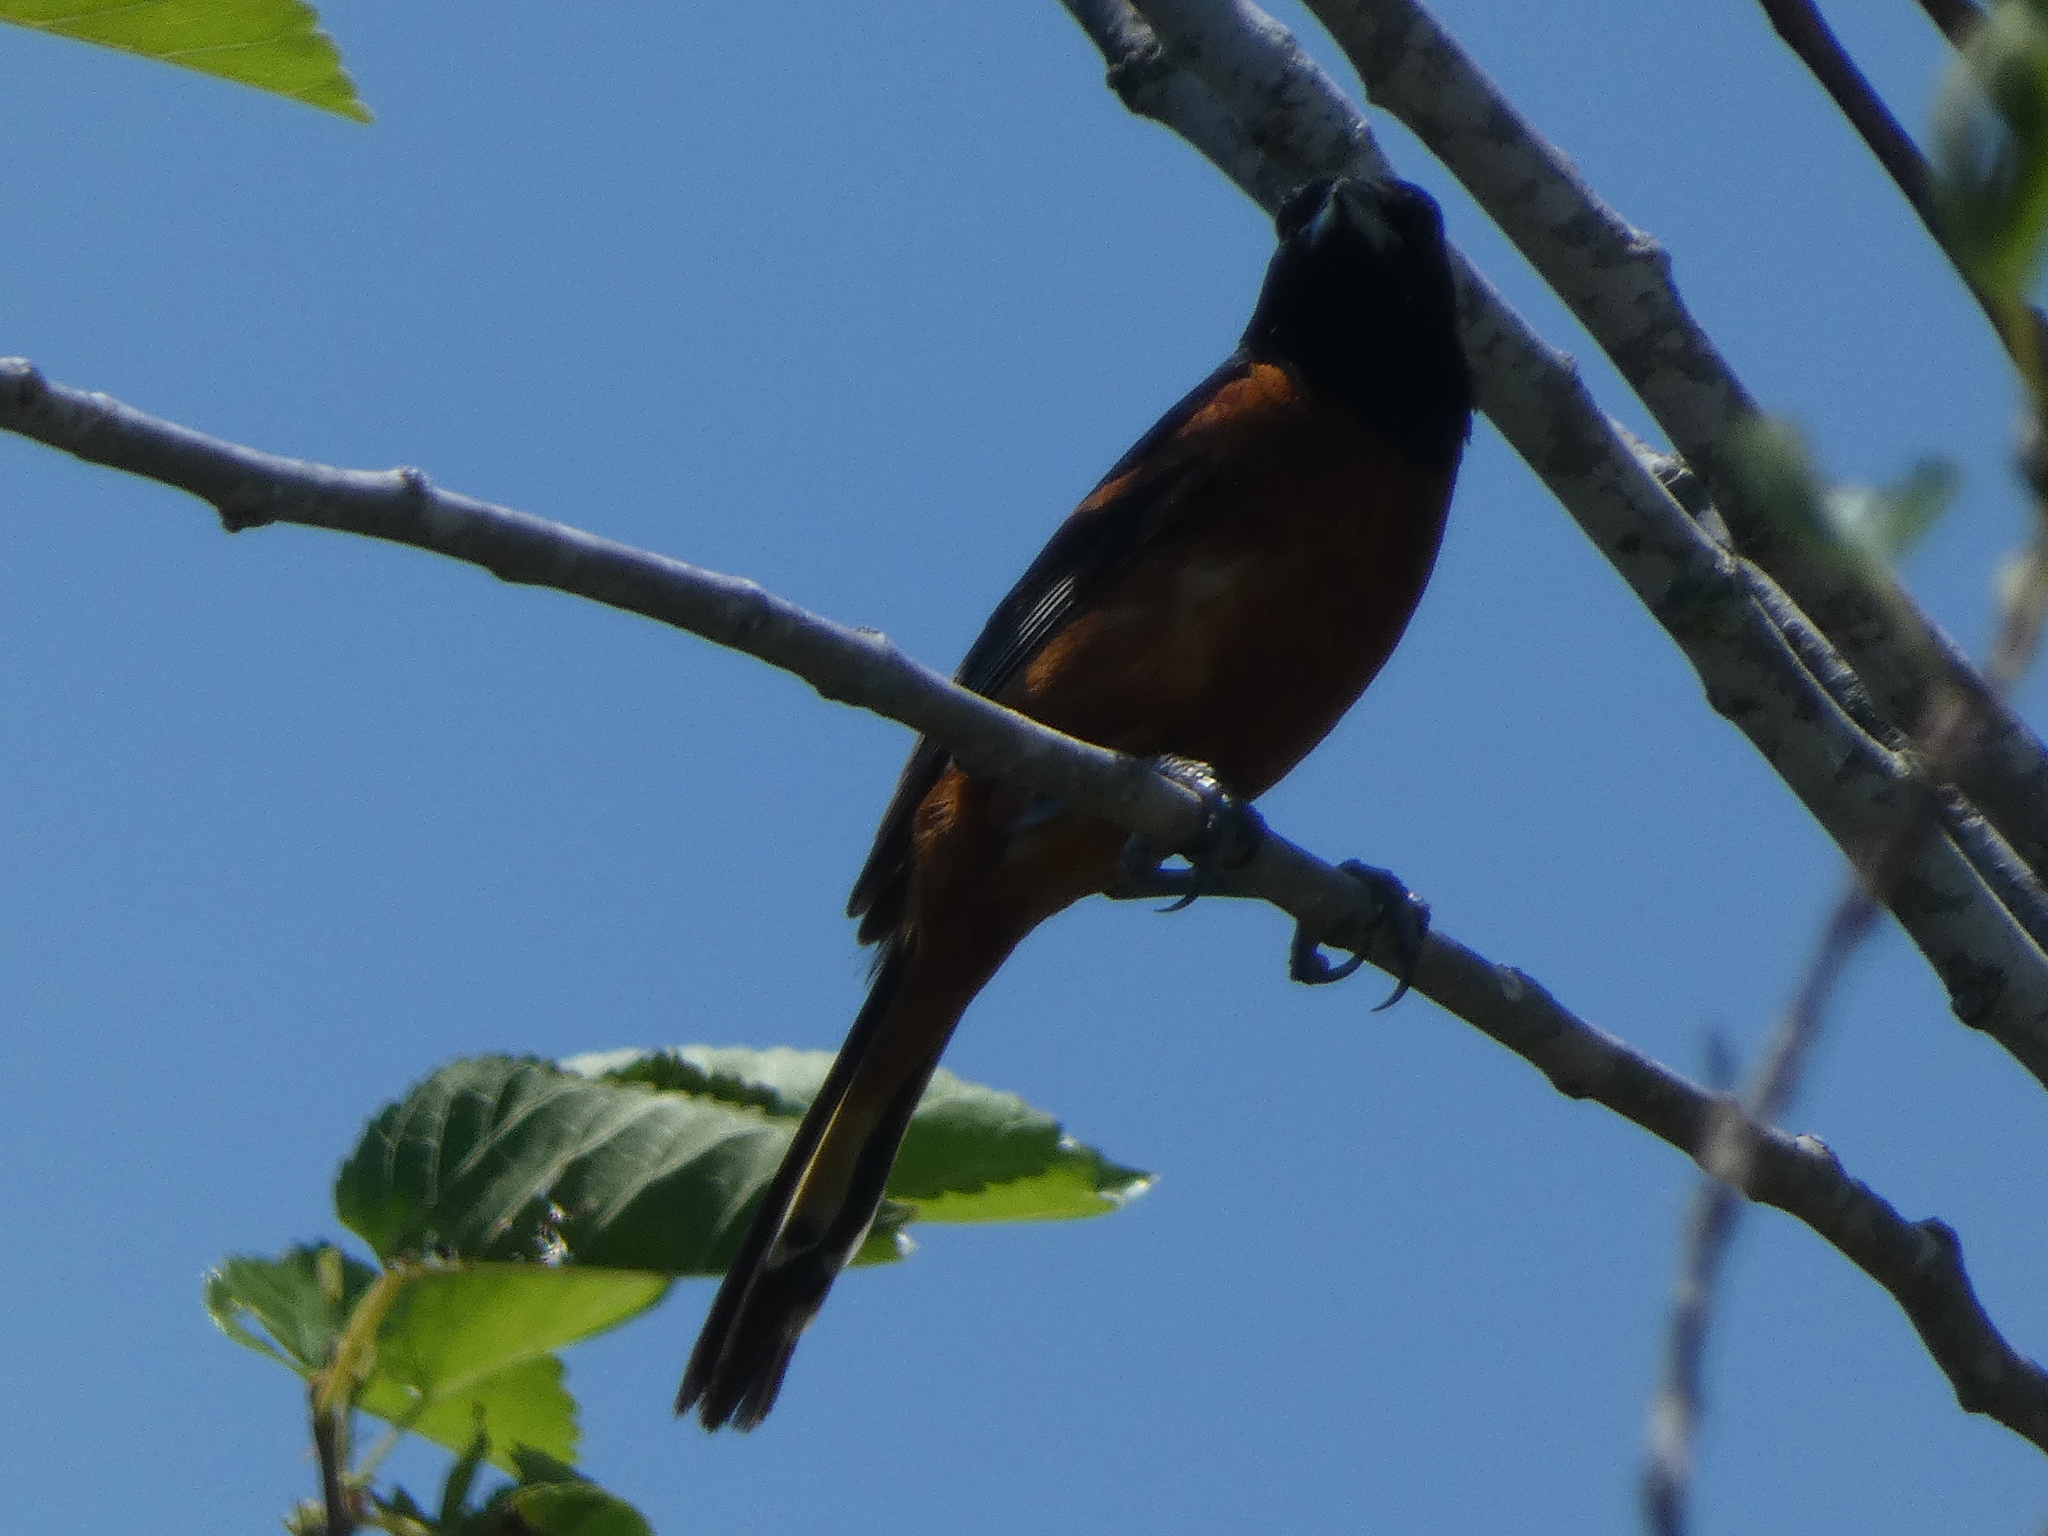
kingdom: Animalia
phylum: Chordata
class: Aves
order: Passeriformes
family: Icteridae
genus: Icterus
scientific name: Icterus spurius
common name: Orchard oriole
